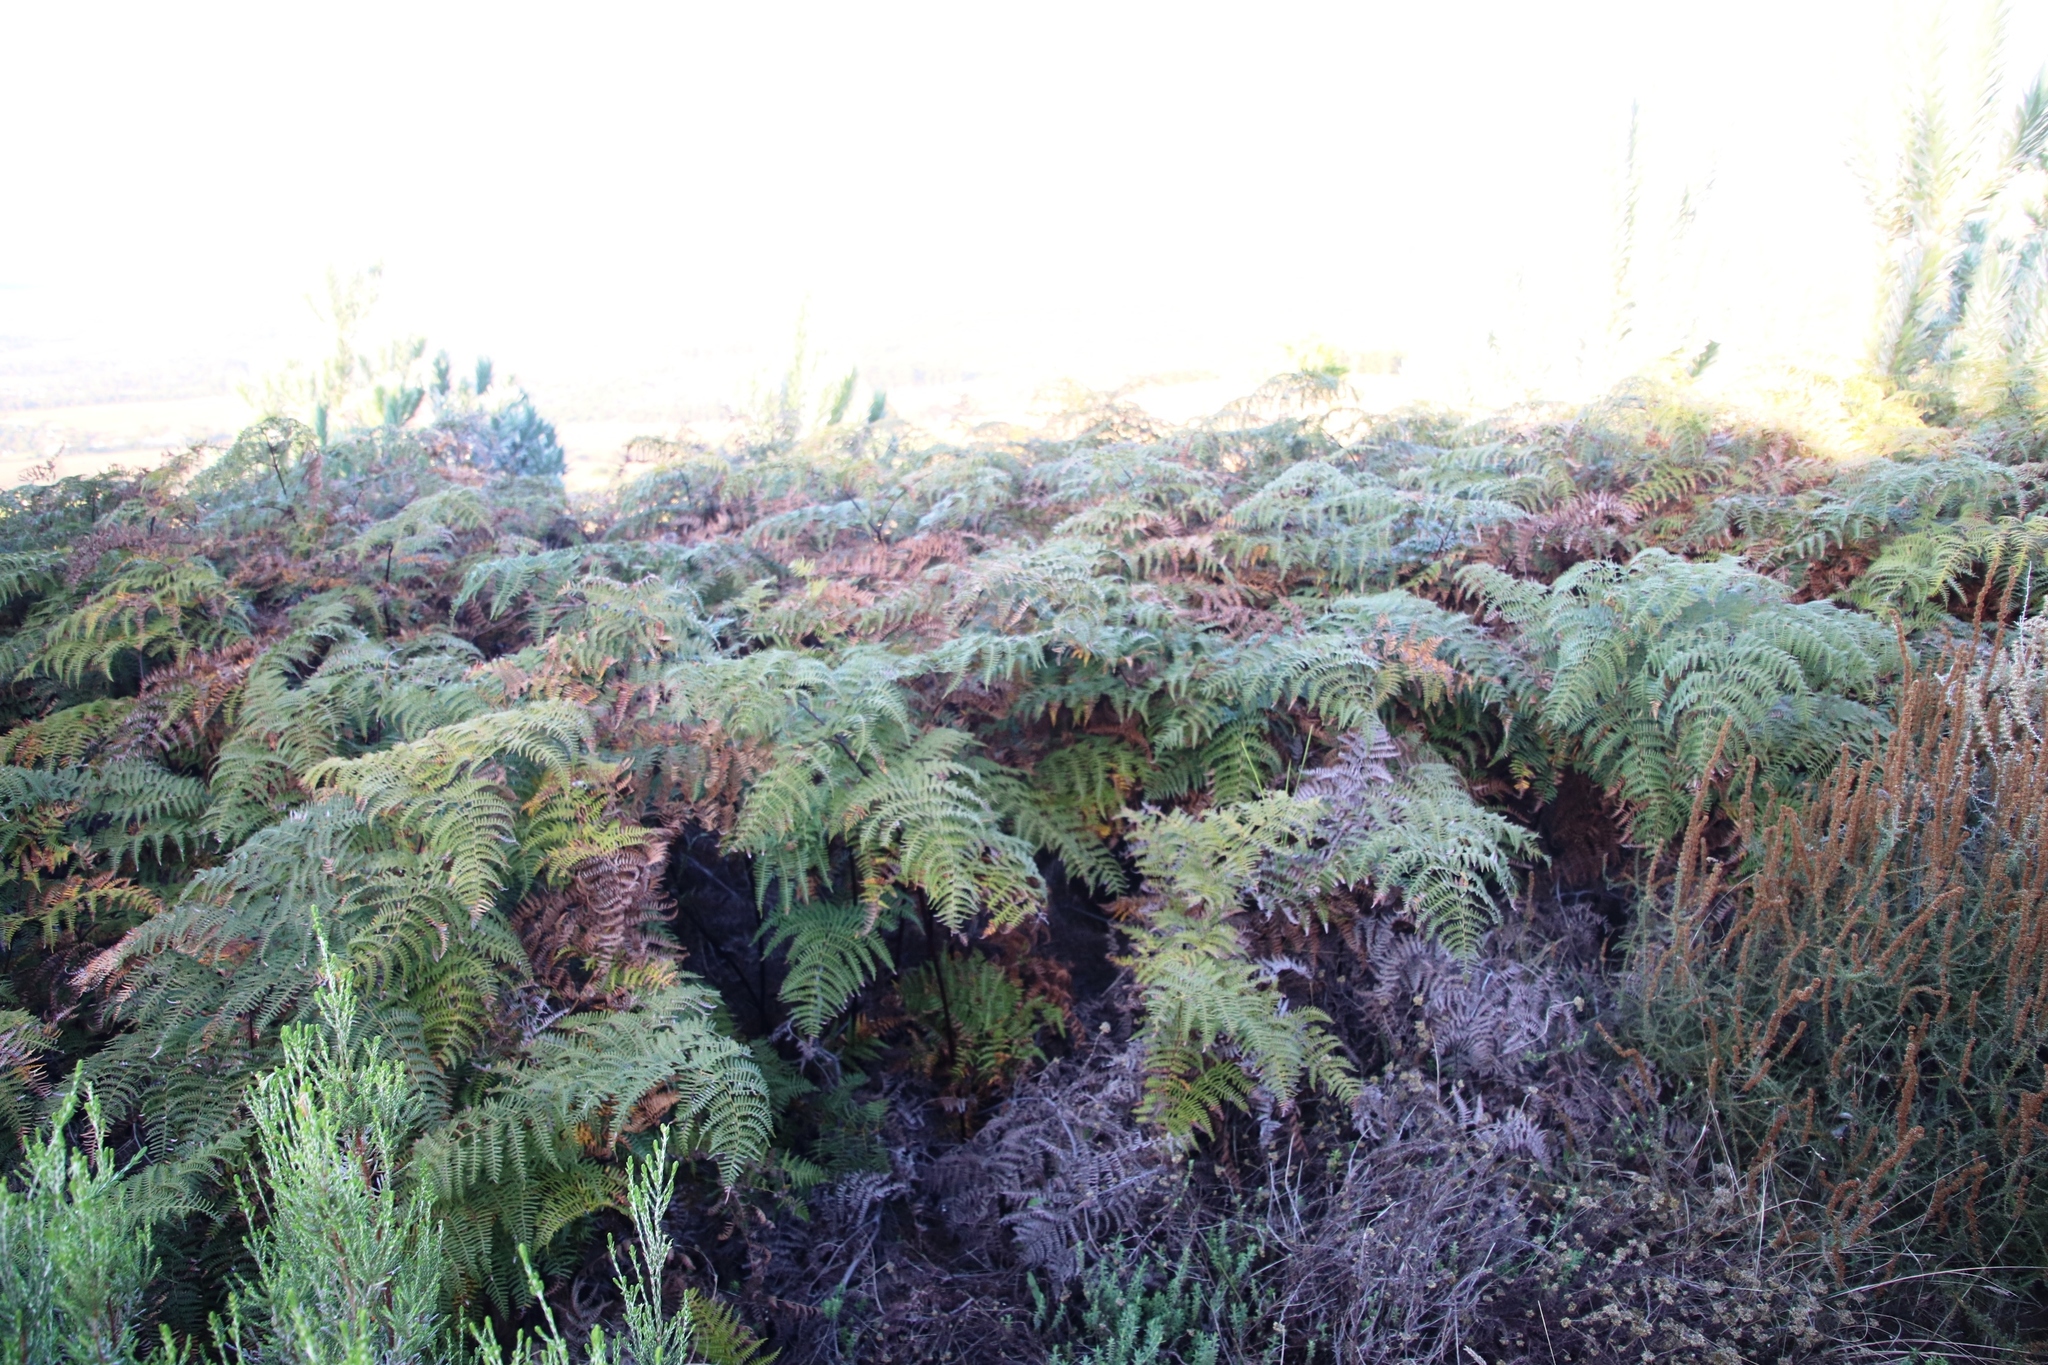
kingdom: Plantae
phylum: Tracheophyta
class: Polypodiopsida
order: Polypodiales
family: Dennstaedtiaceae
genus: Pteridium
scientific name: Pteridium aquilinum
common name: Bracken
